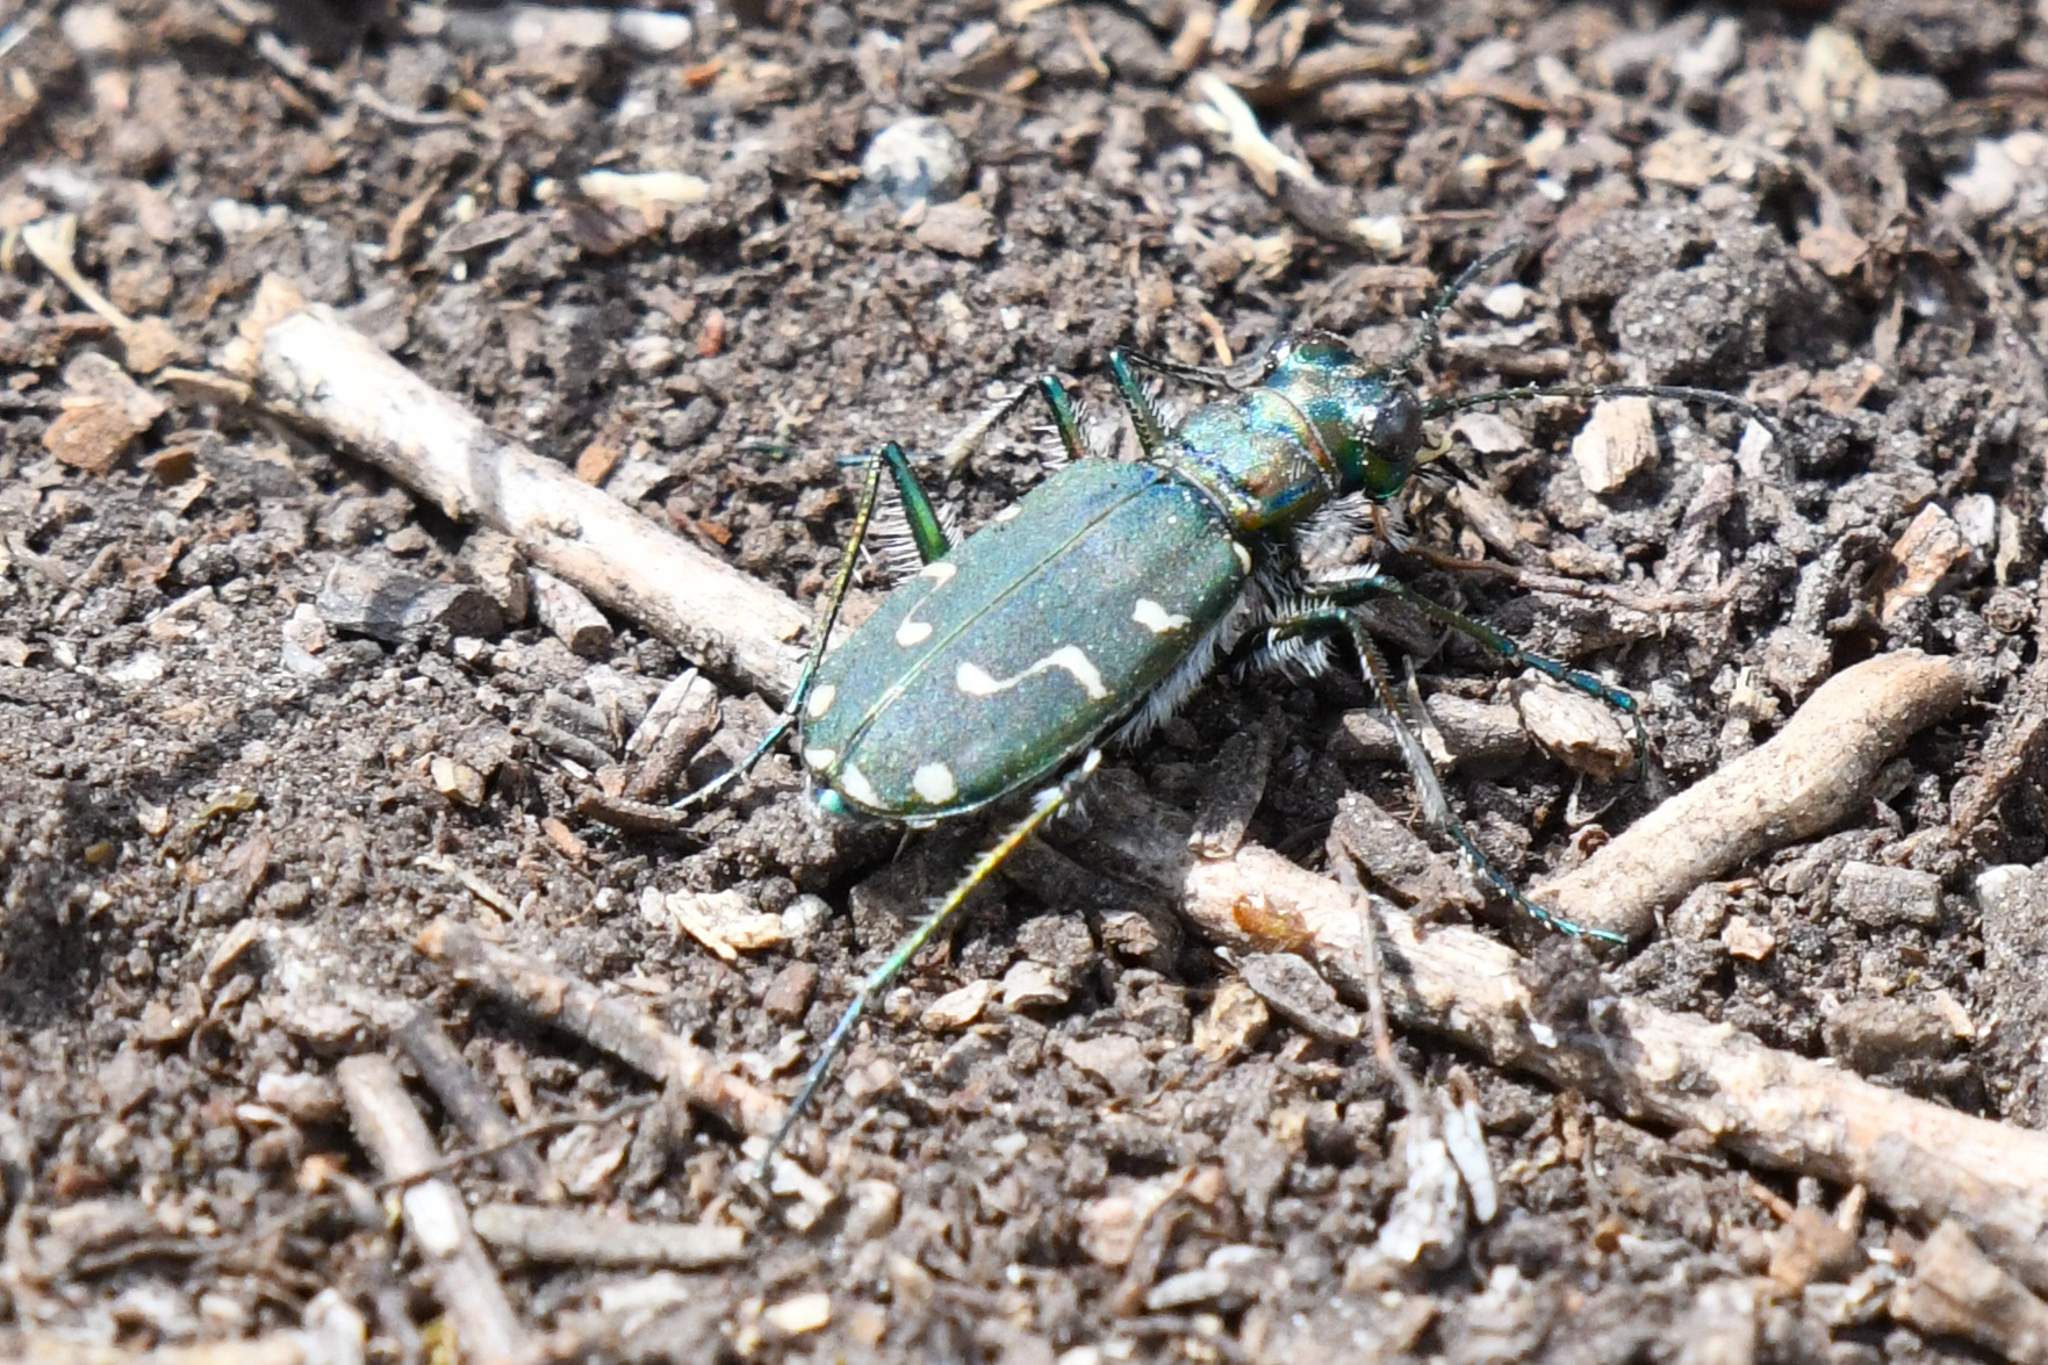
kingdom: Animalia
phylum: Arthropoda
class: Insecta
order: Coleoptera
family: Carabidae
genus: Cicindela
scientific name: Cicindela depressula
